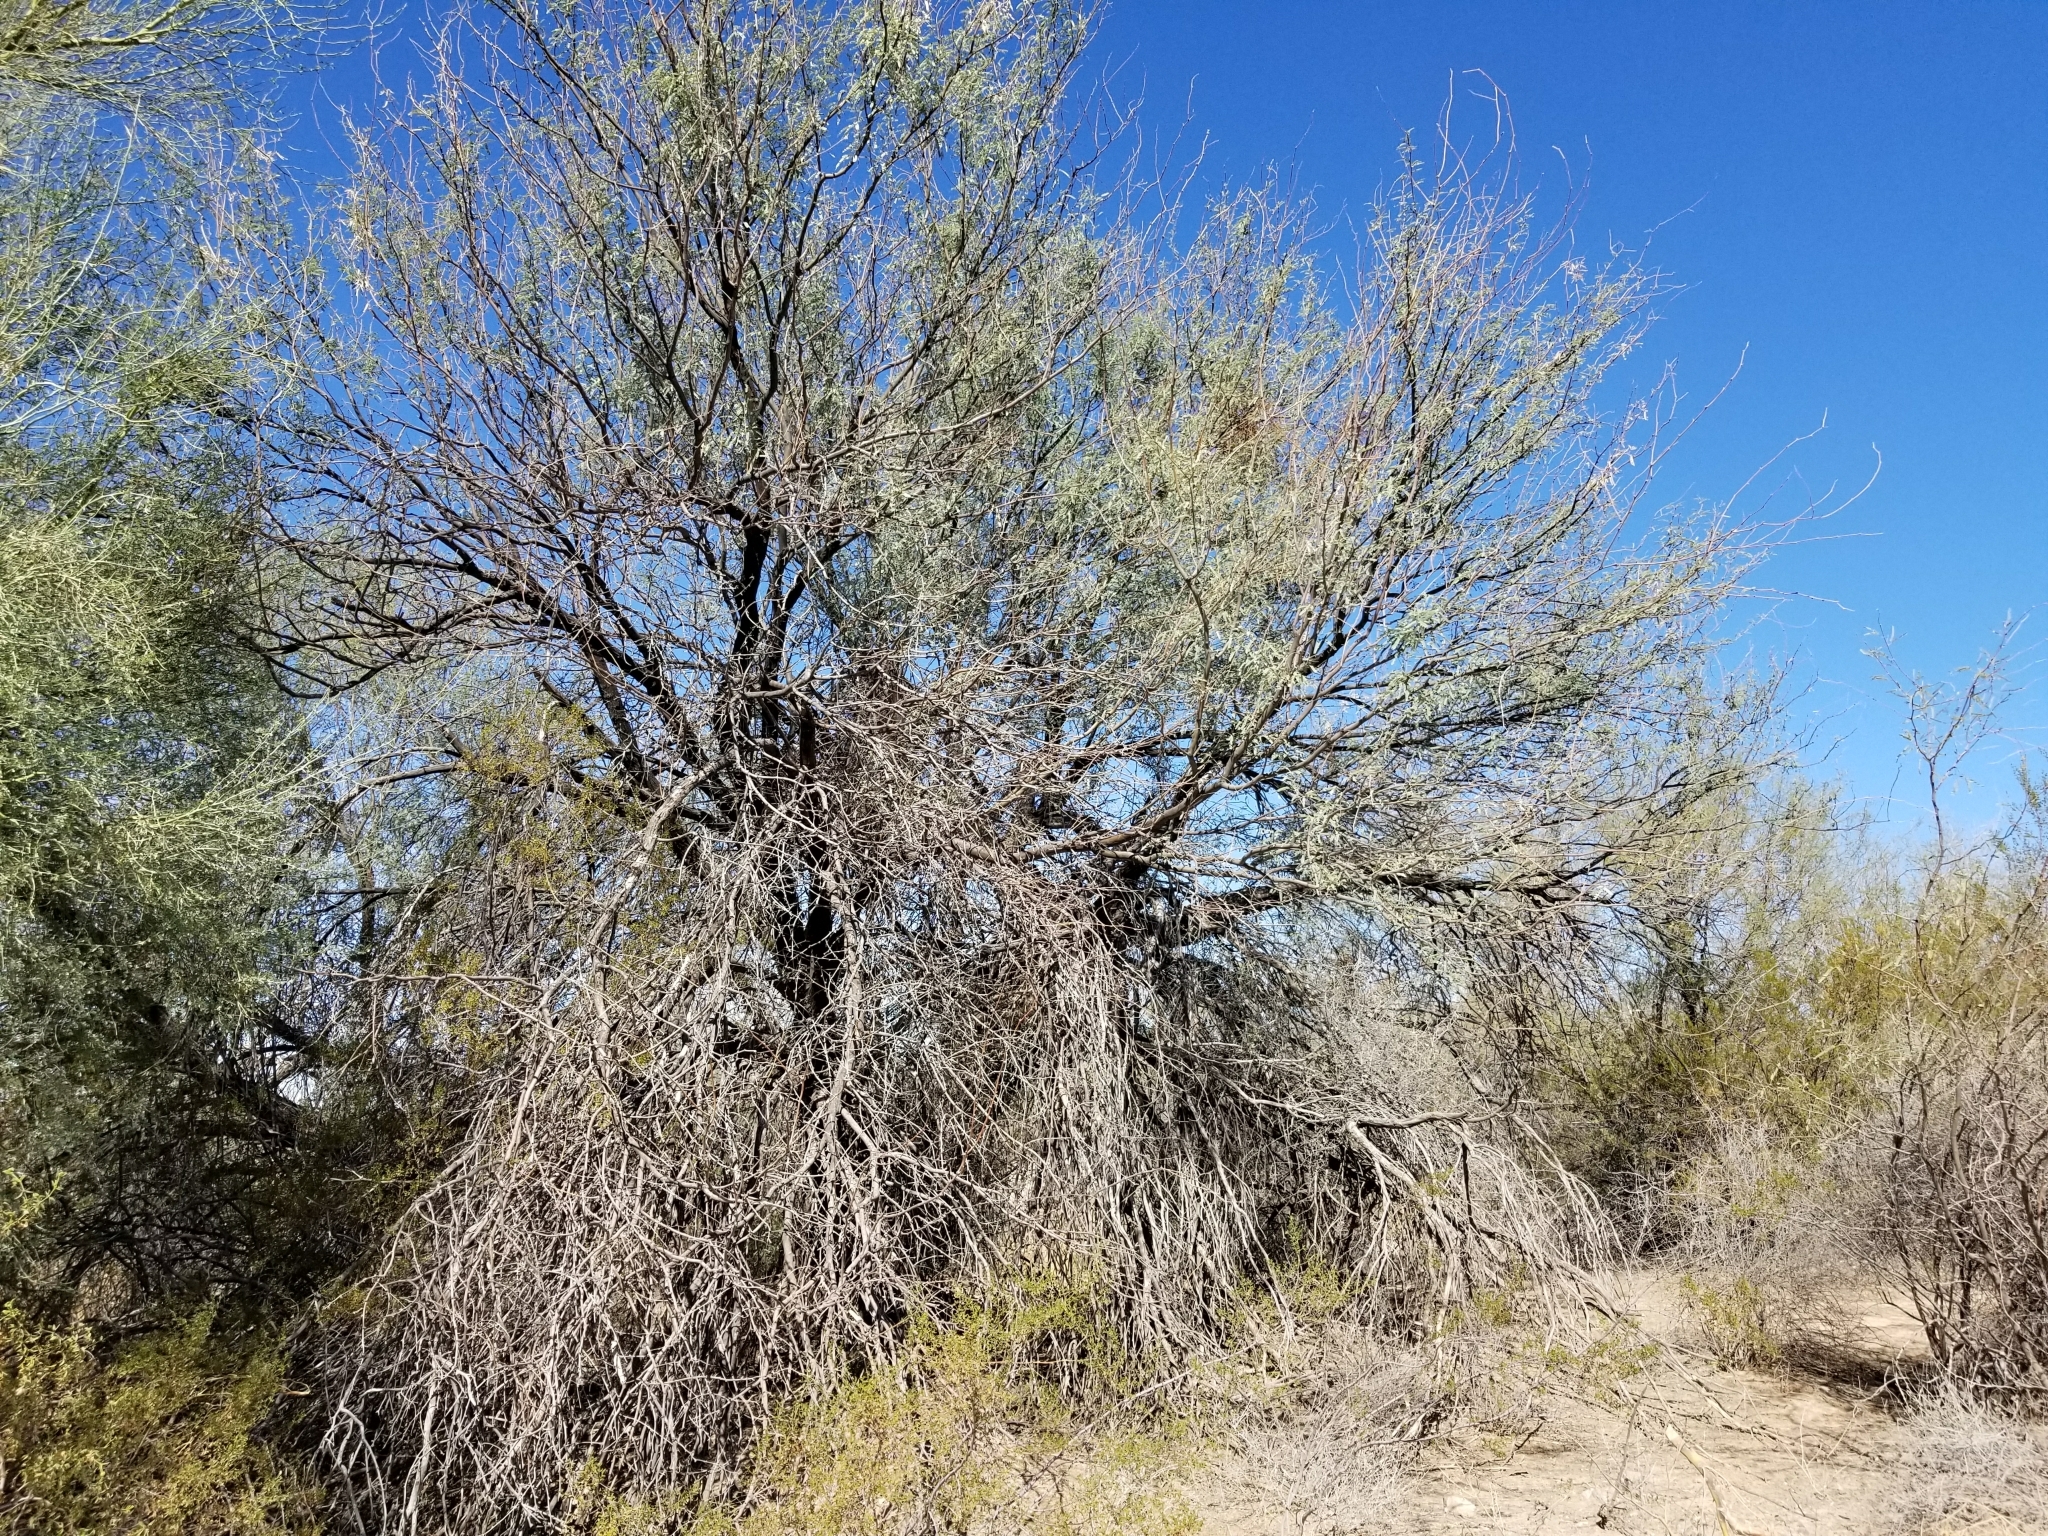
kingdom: Plantae
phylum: Tracheophyta
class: Magnoliopsida
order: Fabales
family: Fabaceae
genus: Prosopis
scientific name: Prosopis velutina
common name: Velvet mesquite
